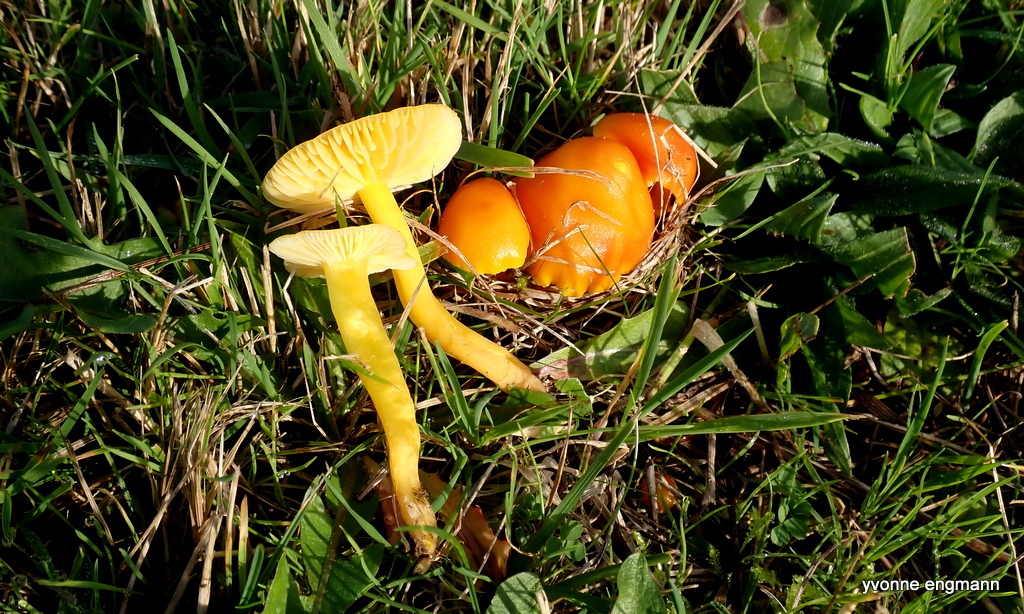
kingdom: Fungi
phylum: Basidiomycota
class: Agaricomycetes
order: Agaricales
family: Hygrophoraceae
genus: Hygrocybe
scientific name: Hygrocybe ceracea
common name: Butter waxcap
